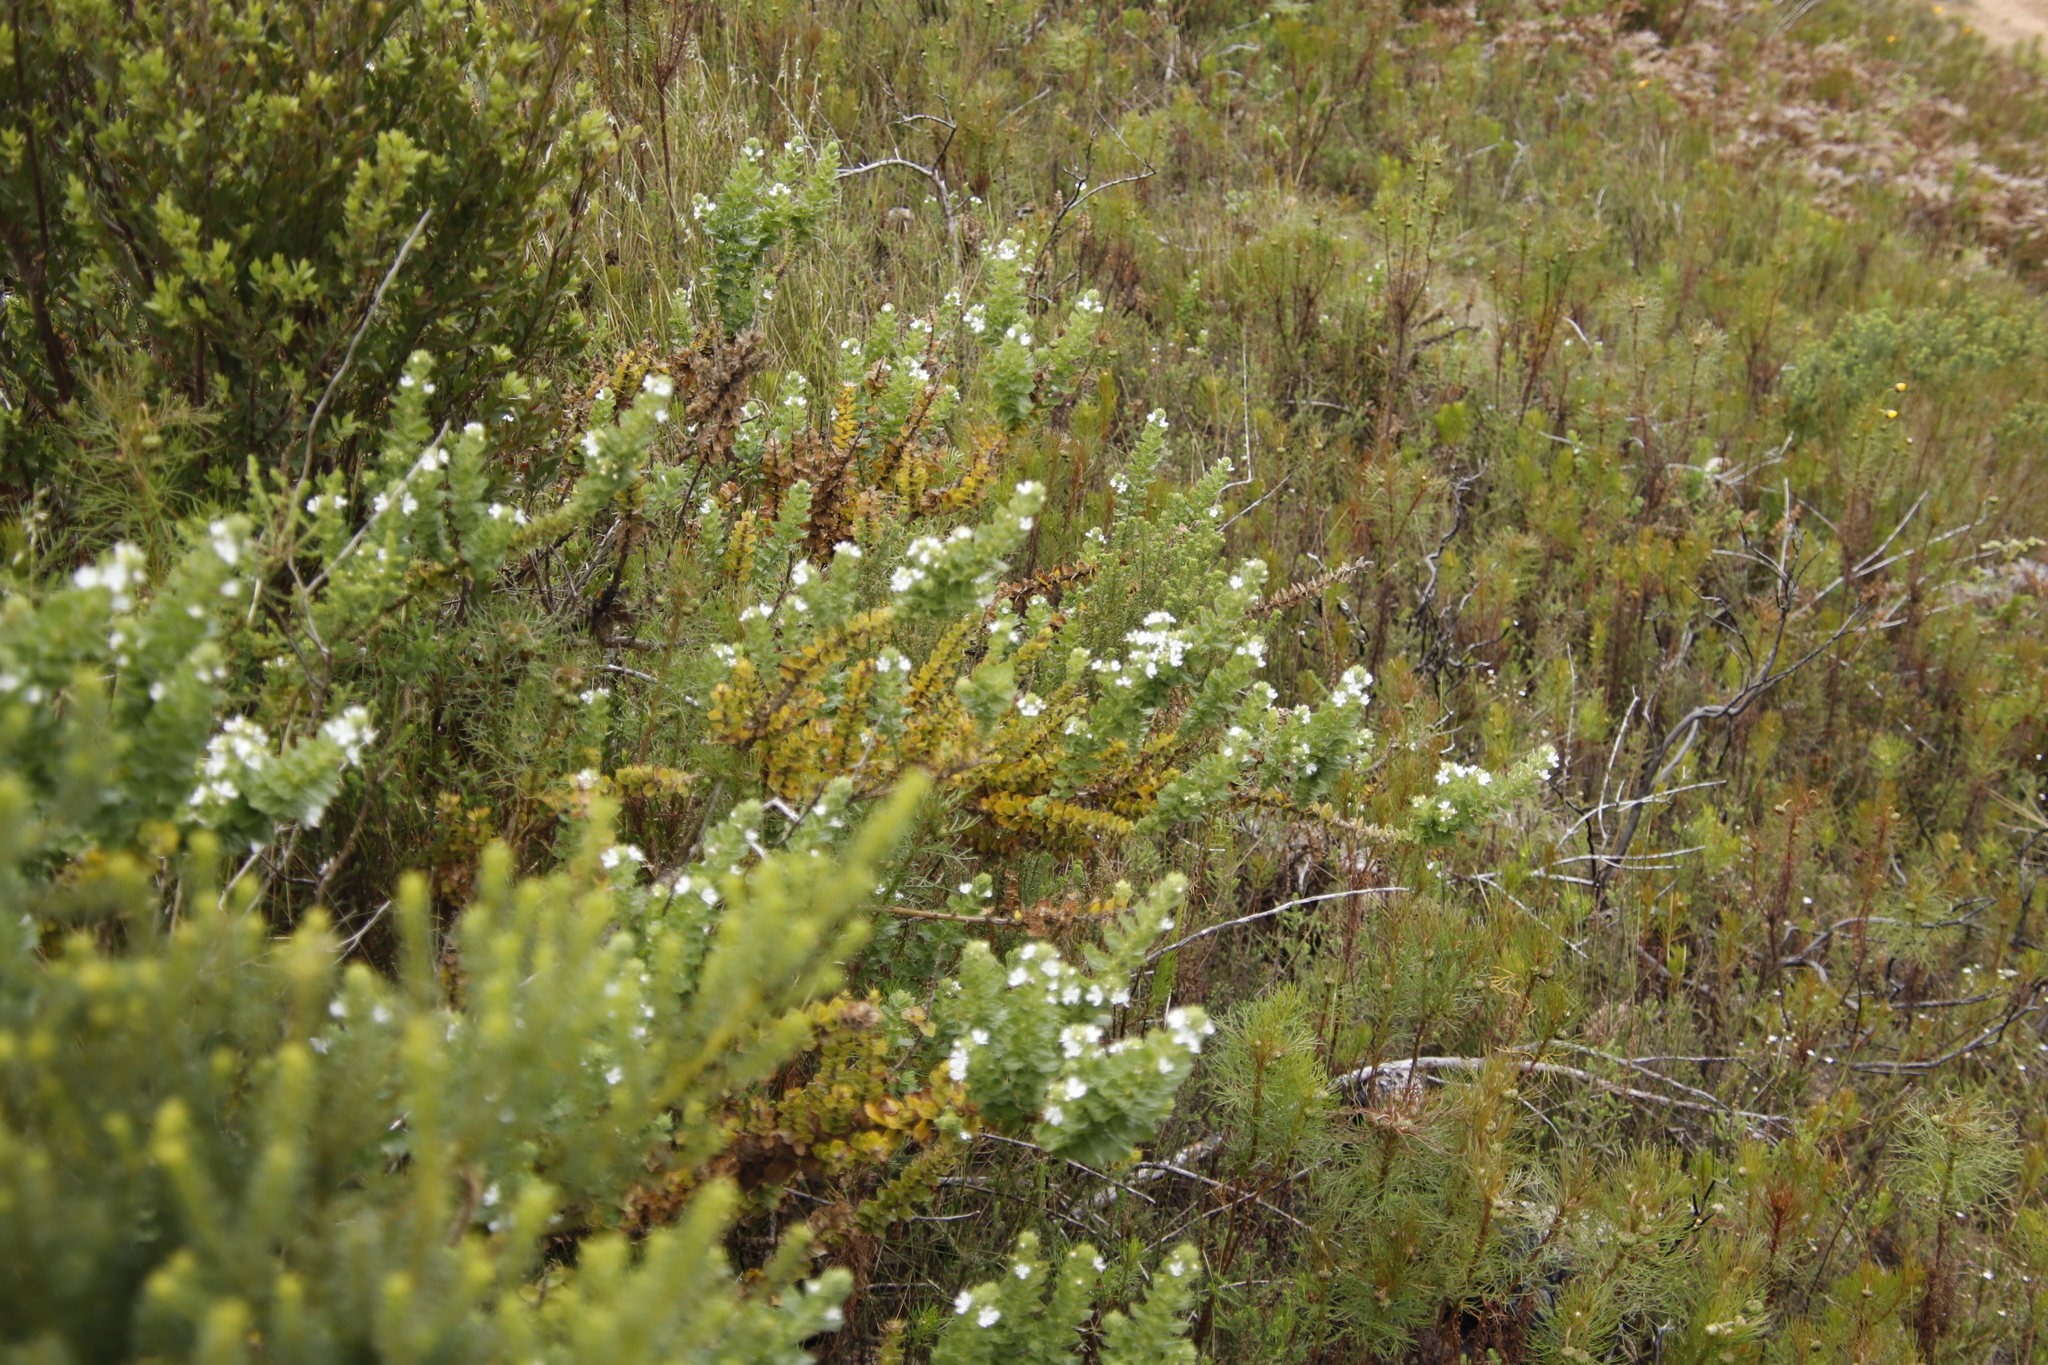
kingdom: Plantae
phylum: Tracheophyta
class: Magnoliopsida
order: Lamiales
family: Scrophulariaceae
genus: Oftia
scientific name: Oftia africana
